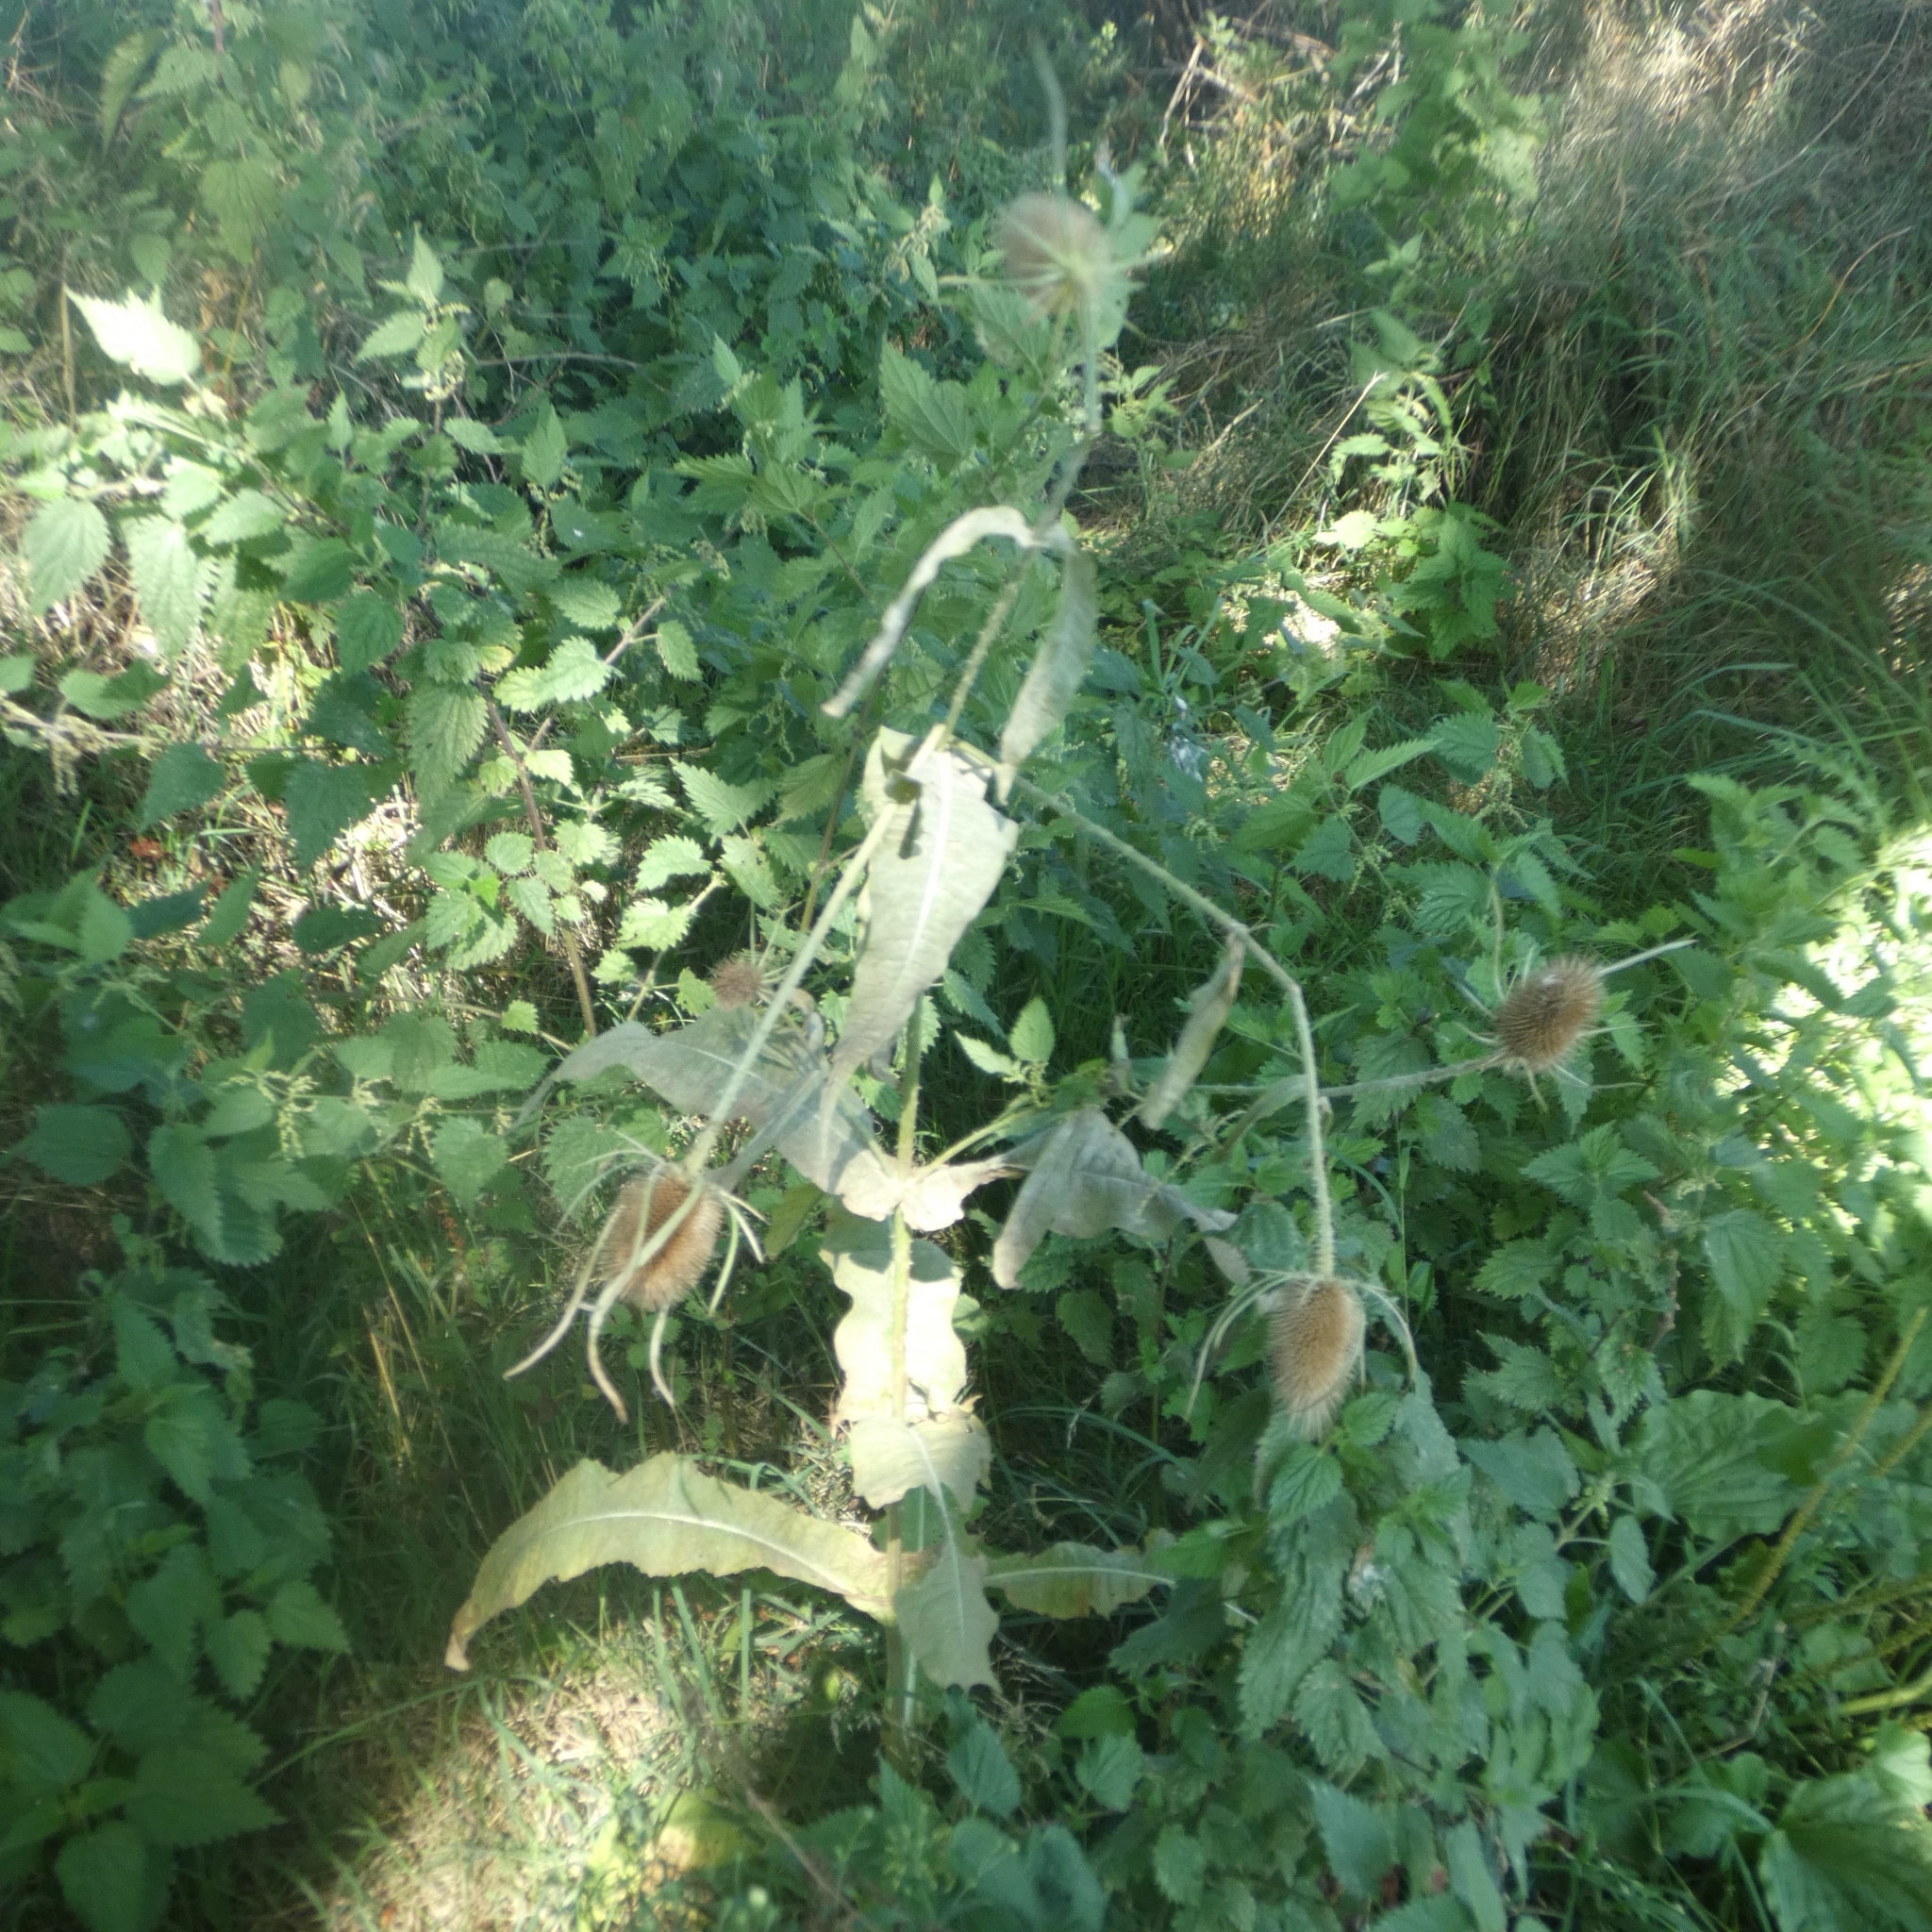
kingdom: Plantae
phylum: Tracheophyta
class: Magnoliopsida
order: Dipsacales
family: Caprifoliaceae
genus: Dipsacus
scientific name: Dipsacus fullonum
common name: Teasel
